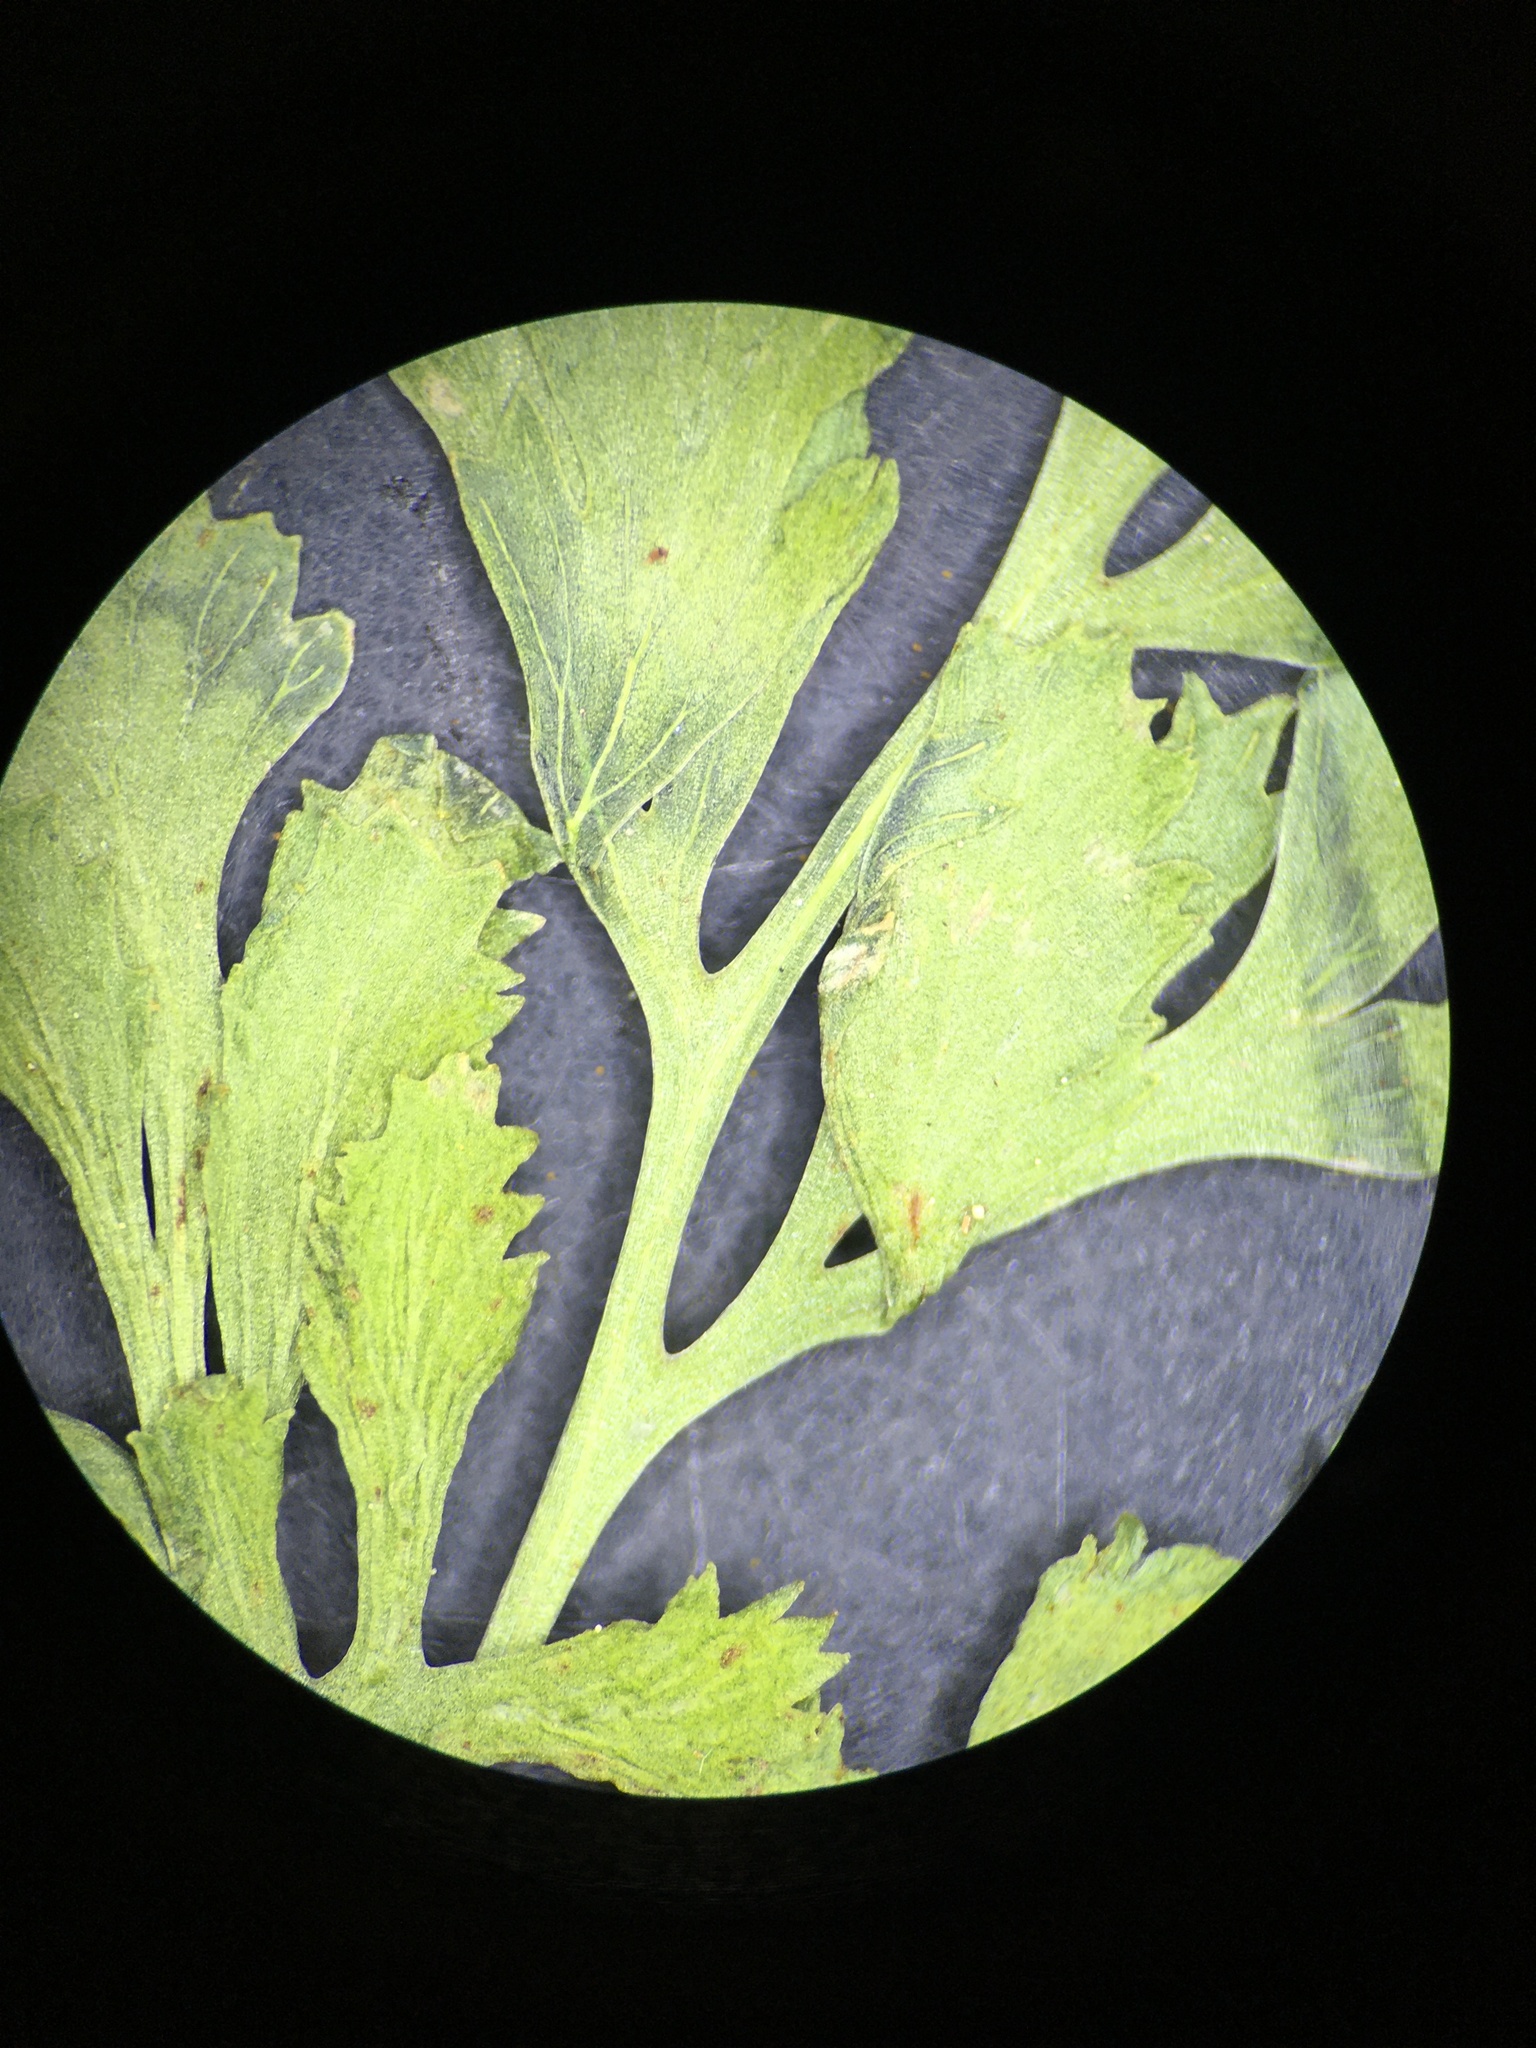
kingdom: Plantae
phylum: Tracheophyta
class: Polypodiopsida
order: Polypodiales
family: Pteridaceae
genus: Cryptogramma
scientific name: Cryptogramma cascadensis
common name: Cascade parsley fern
